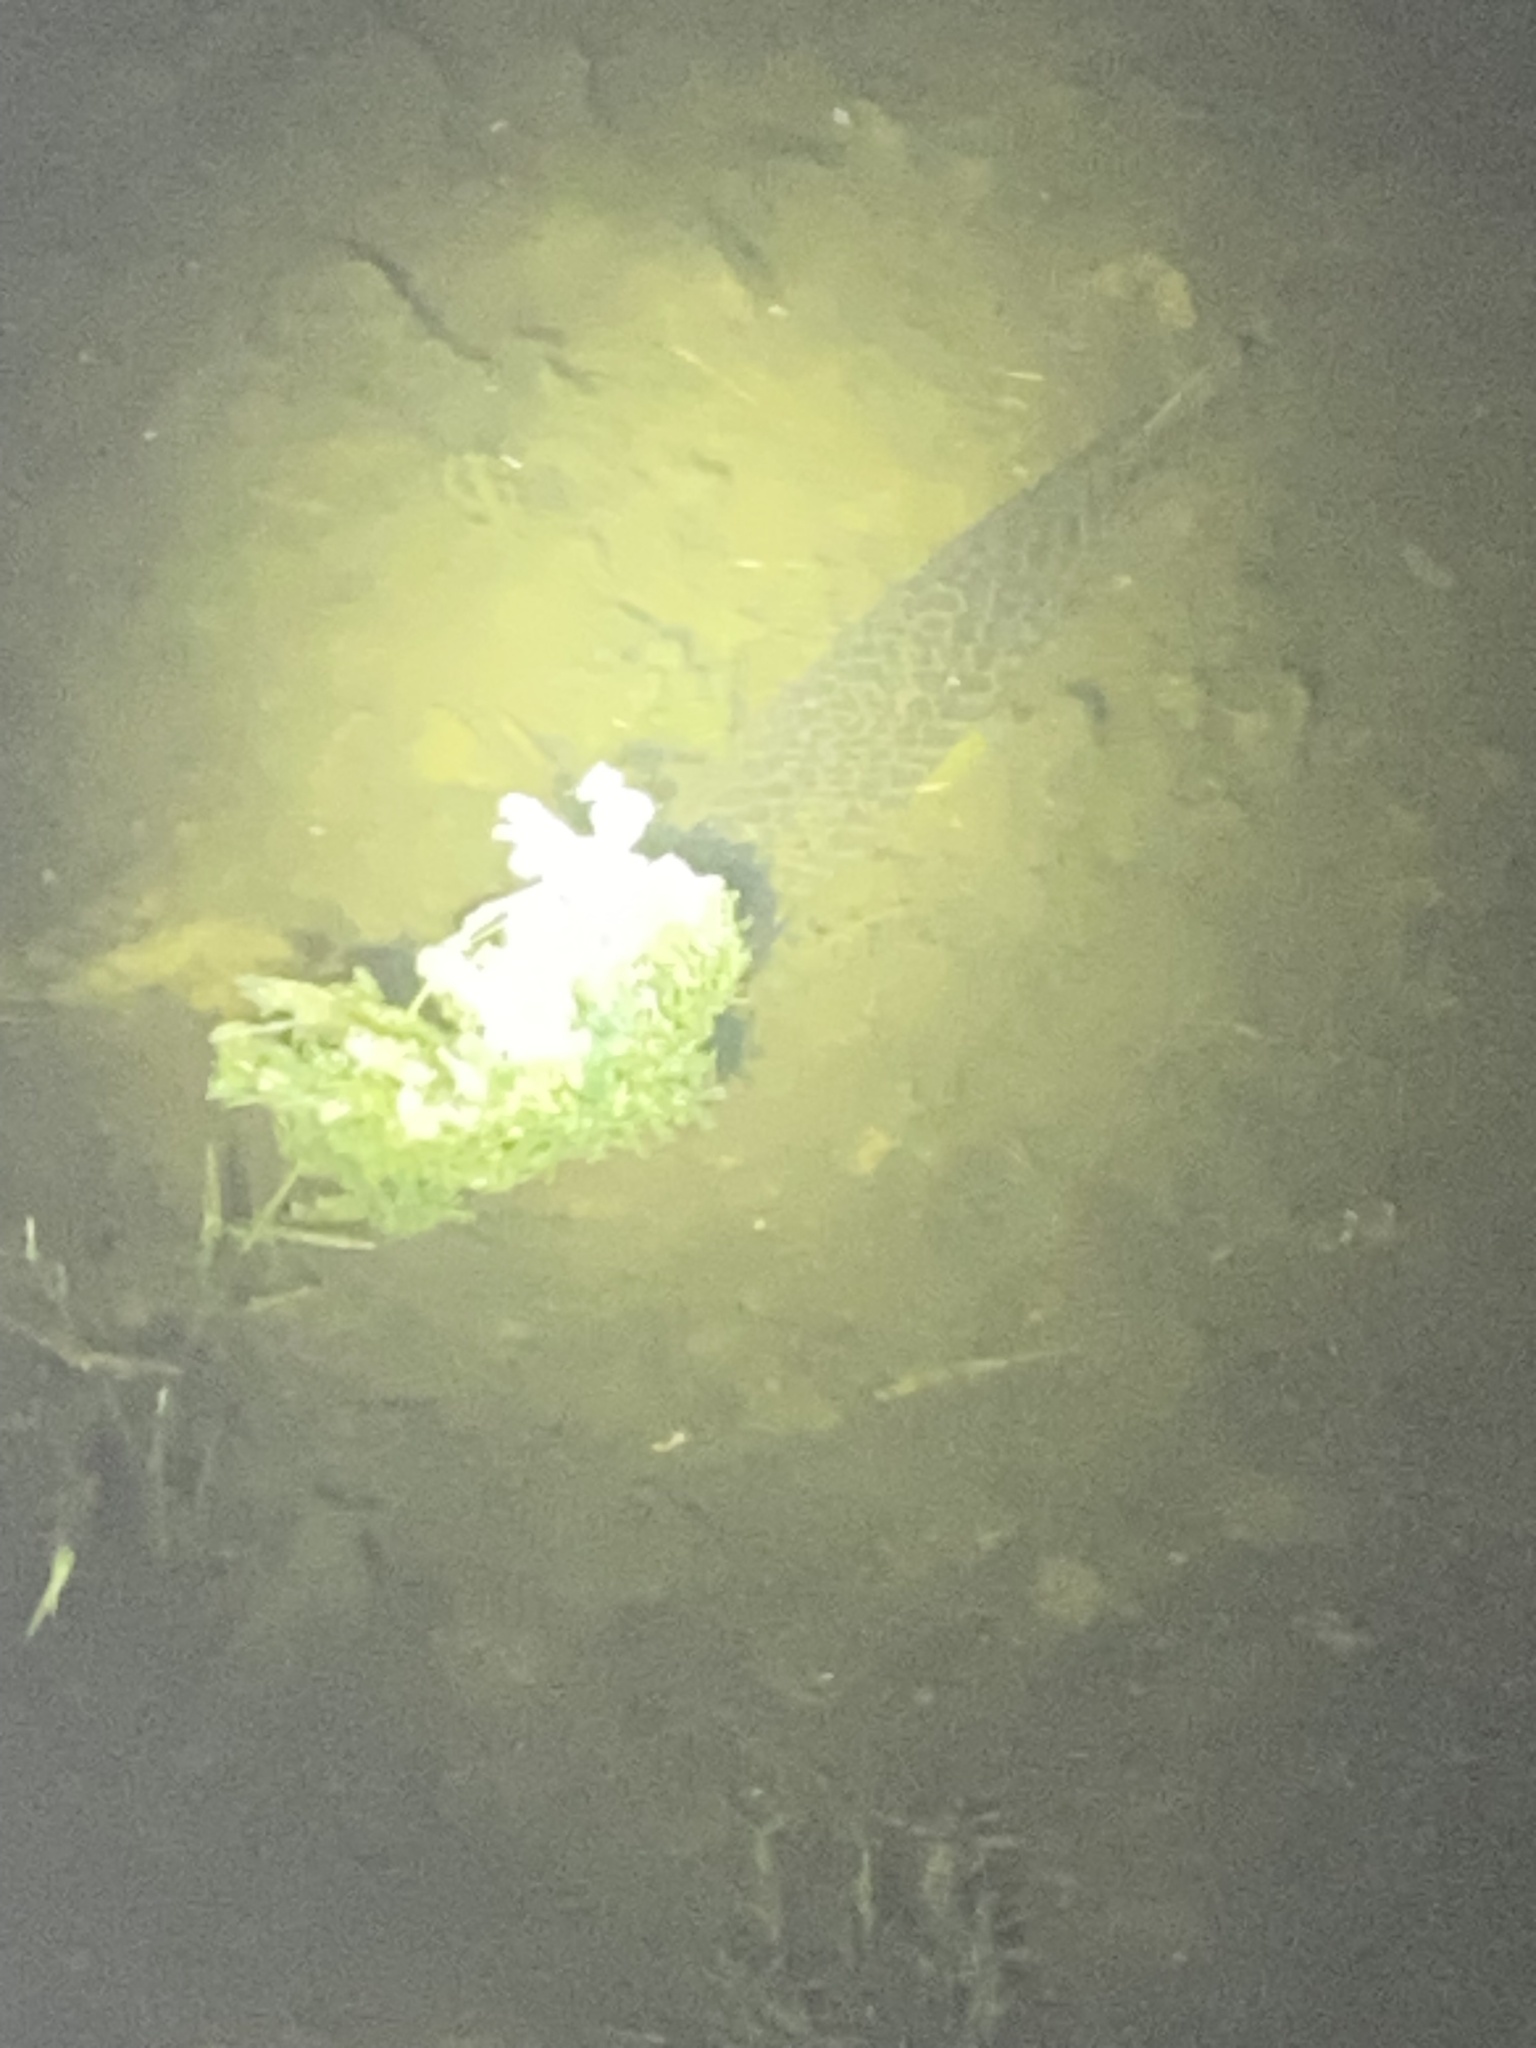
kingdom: Animalia
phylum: Chordata
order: Lepisosteiformes
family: Lepisosteidae
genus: Lepisosteus
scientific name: Lepisosteus platyrhincus
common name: Florida gar
